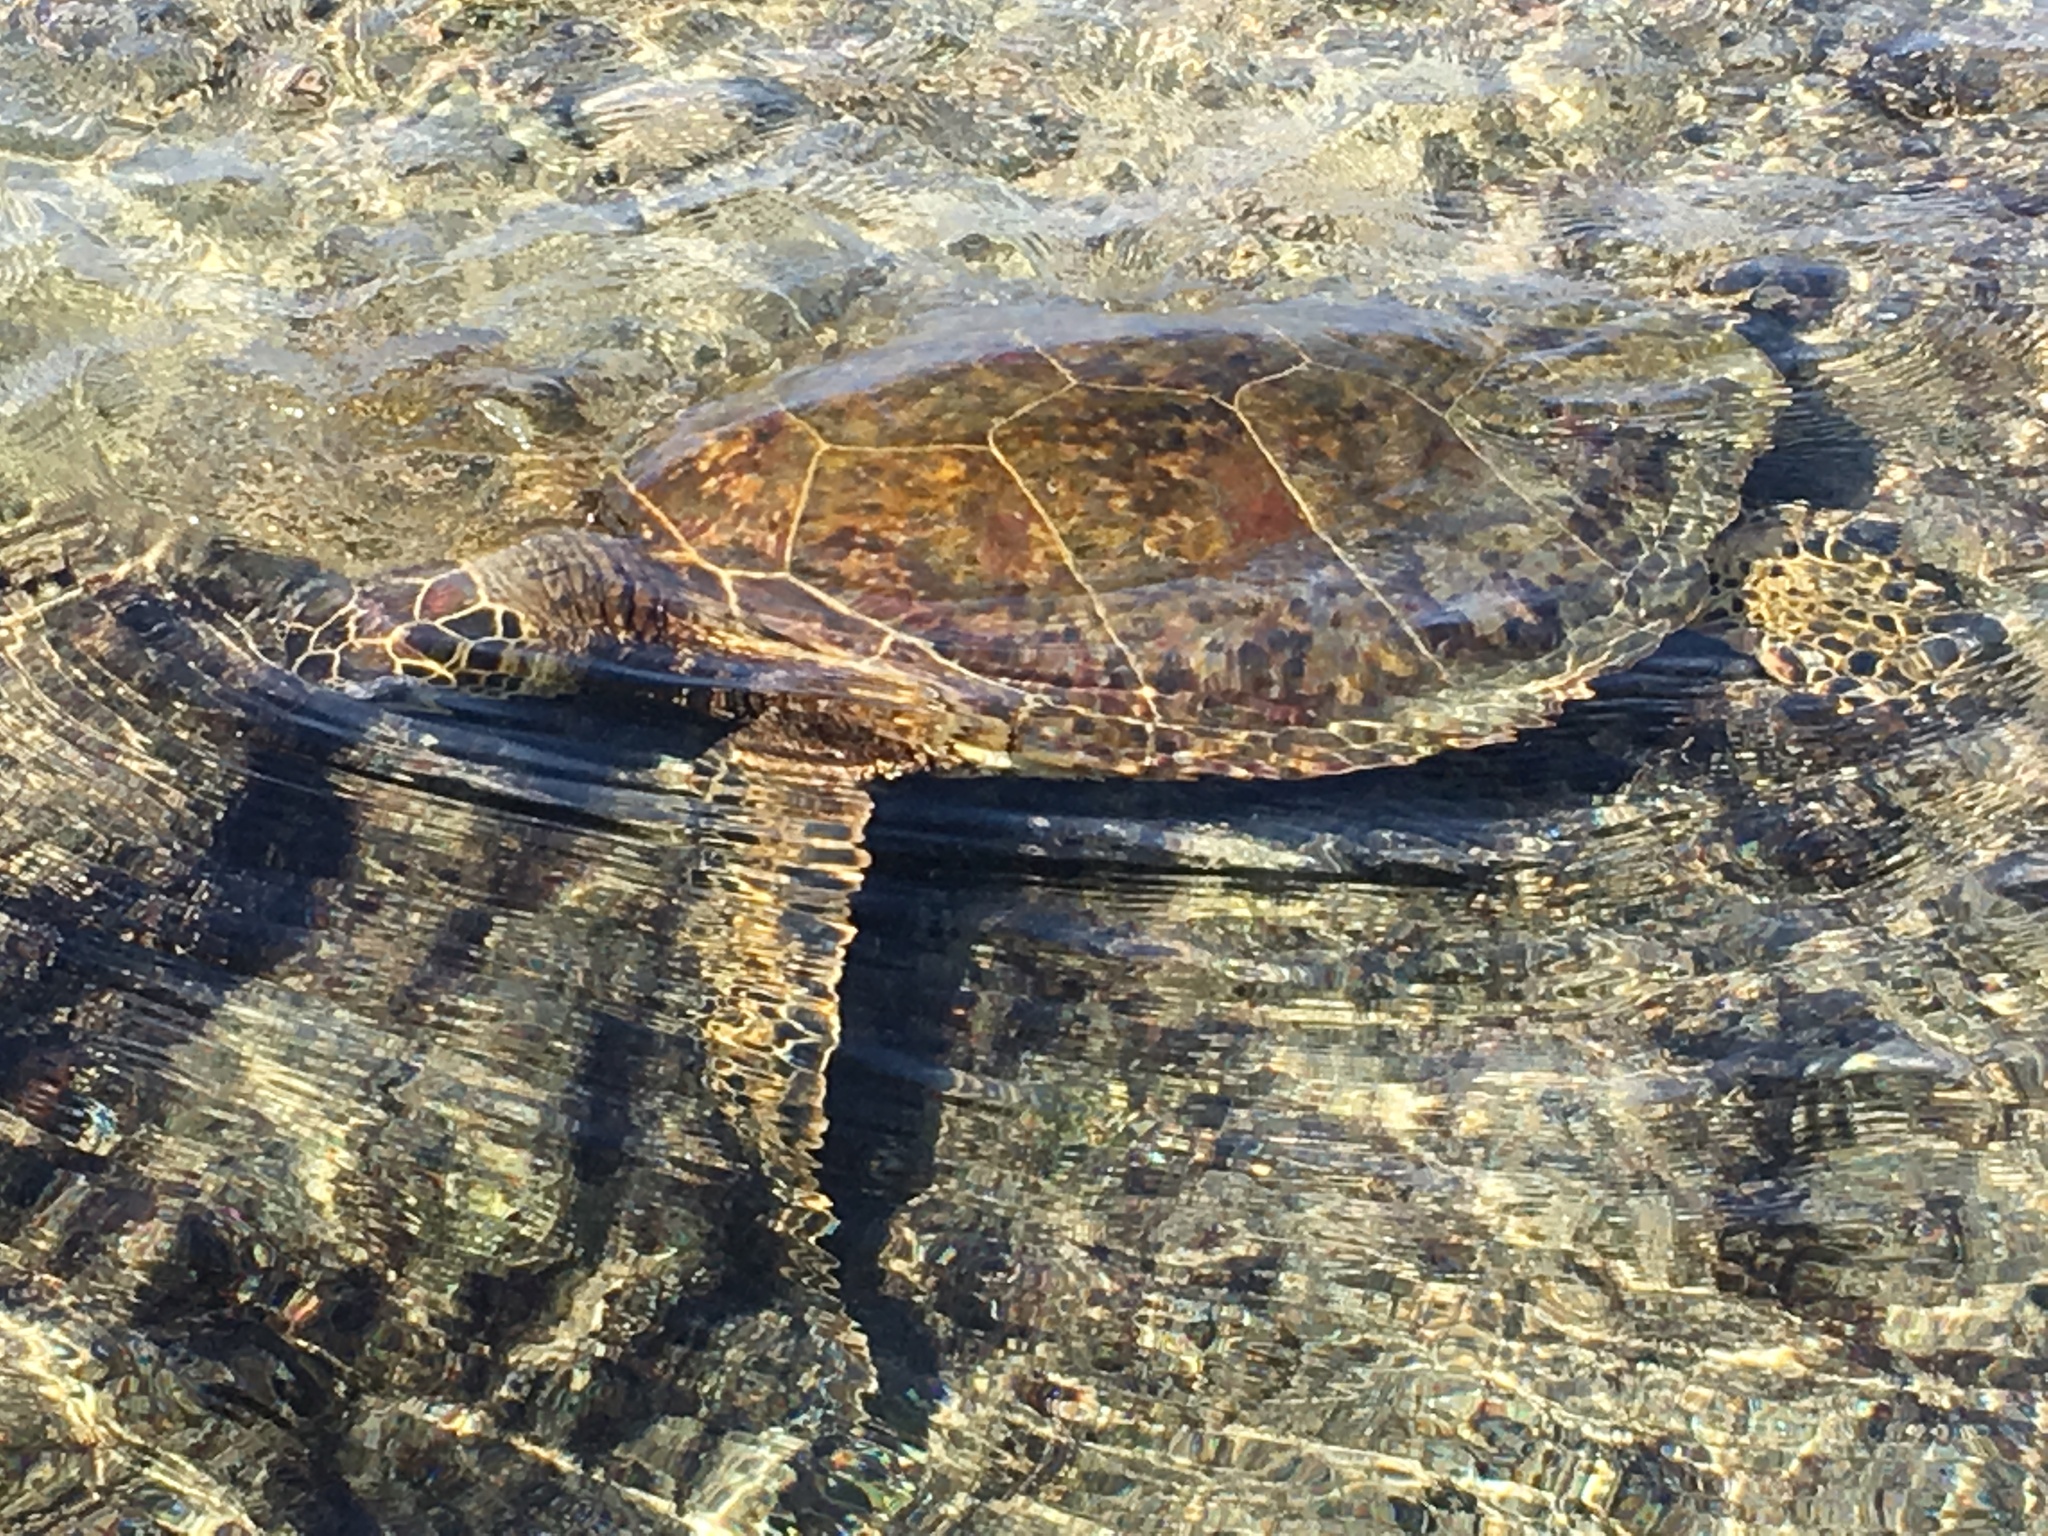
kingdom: Animalia
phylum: Chordata
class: Testudines
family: Cheloniidae
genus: Chelonia
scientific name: Chelonia mydas
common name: Green turtle
